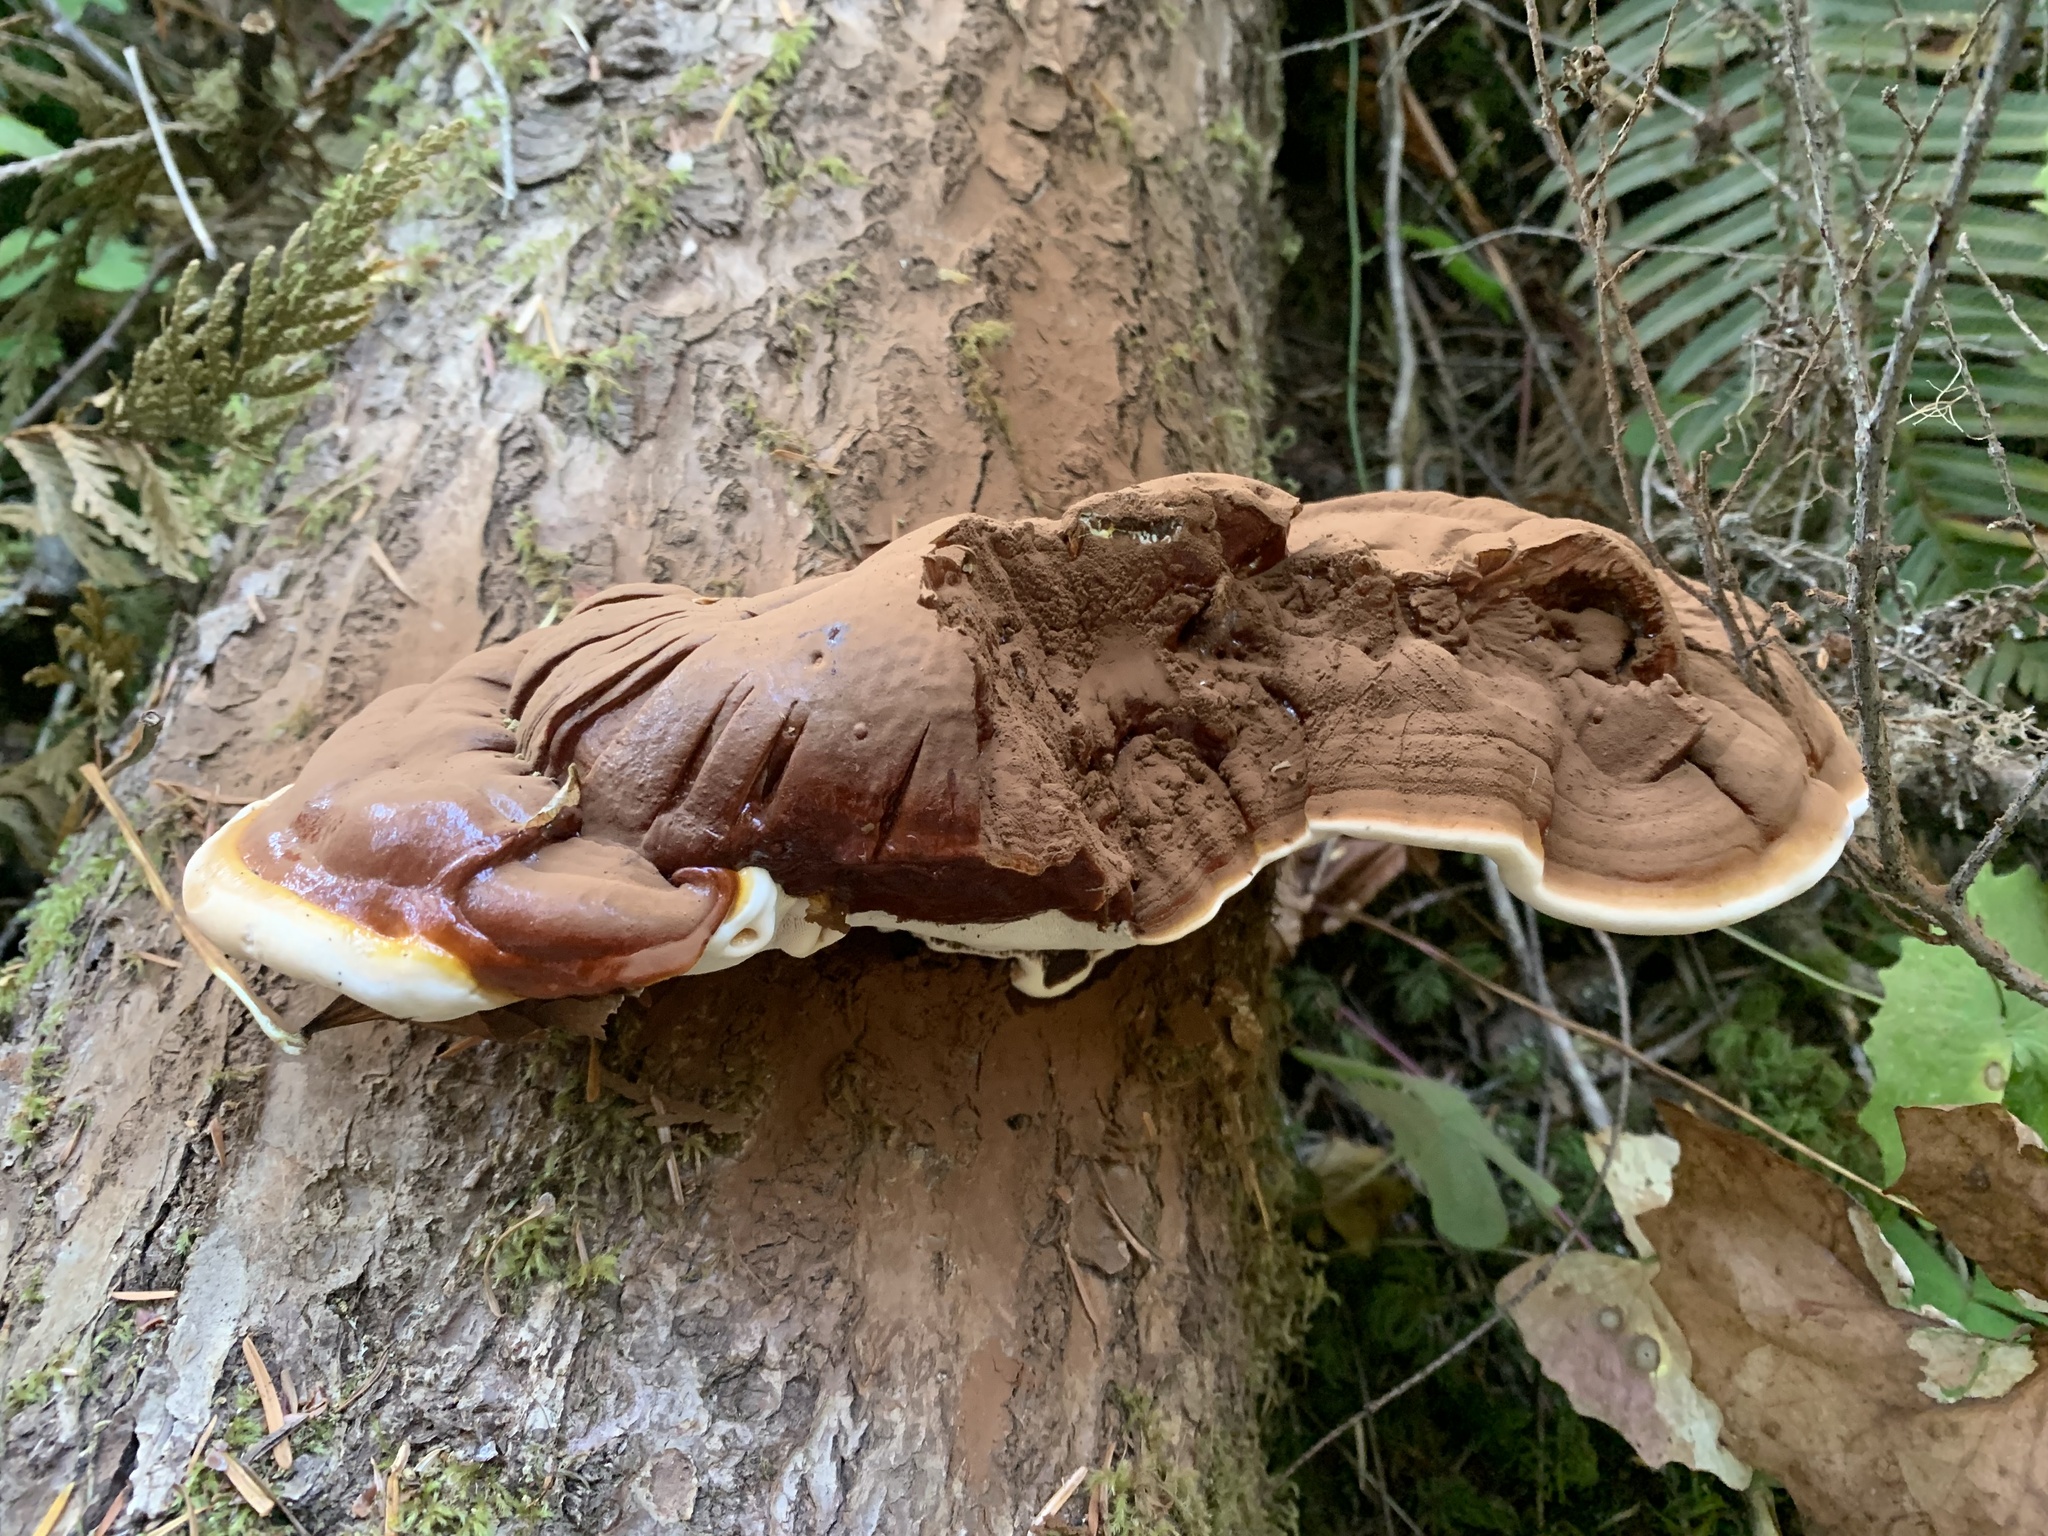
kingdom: Fungi
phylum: Basidiomycota
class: Agaricomycetes
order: Polyporales
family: Polyporaceae
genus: Ganoderma
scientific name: Ganoderma oregonense
